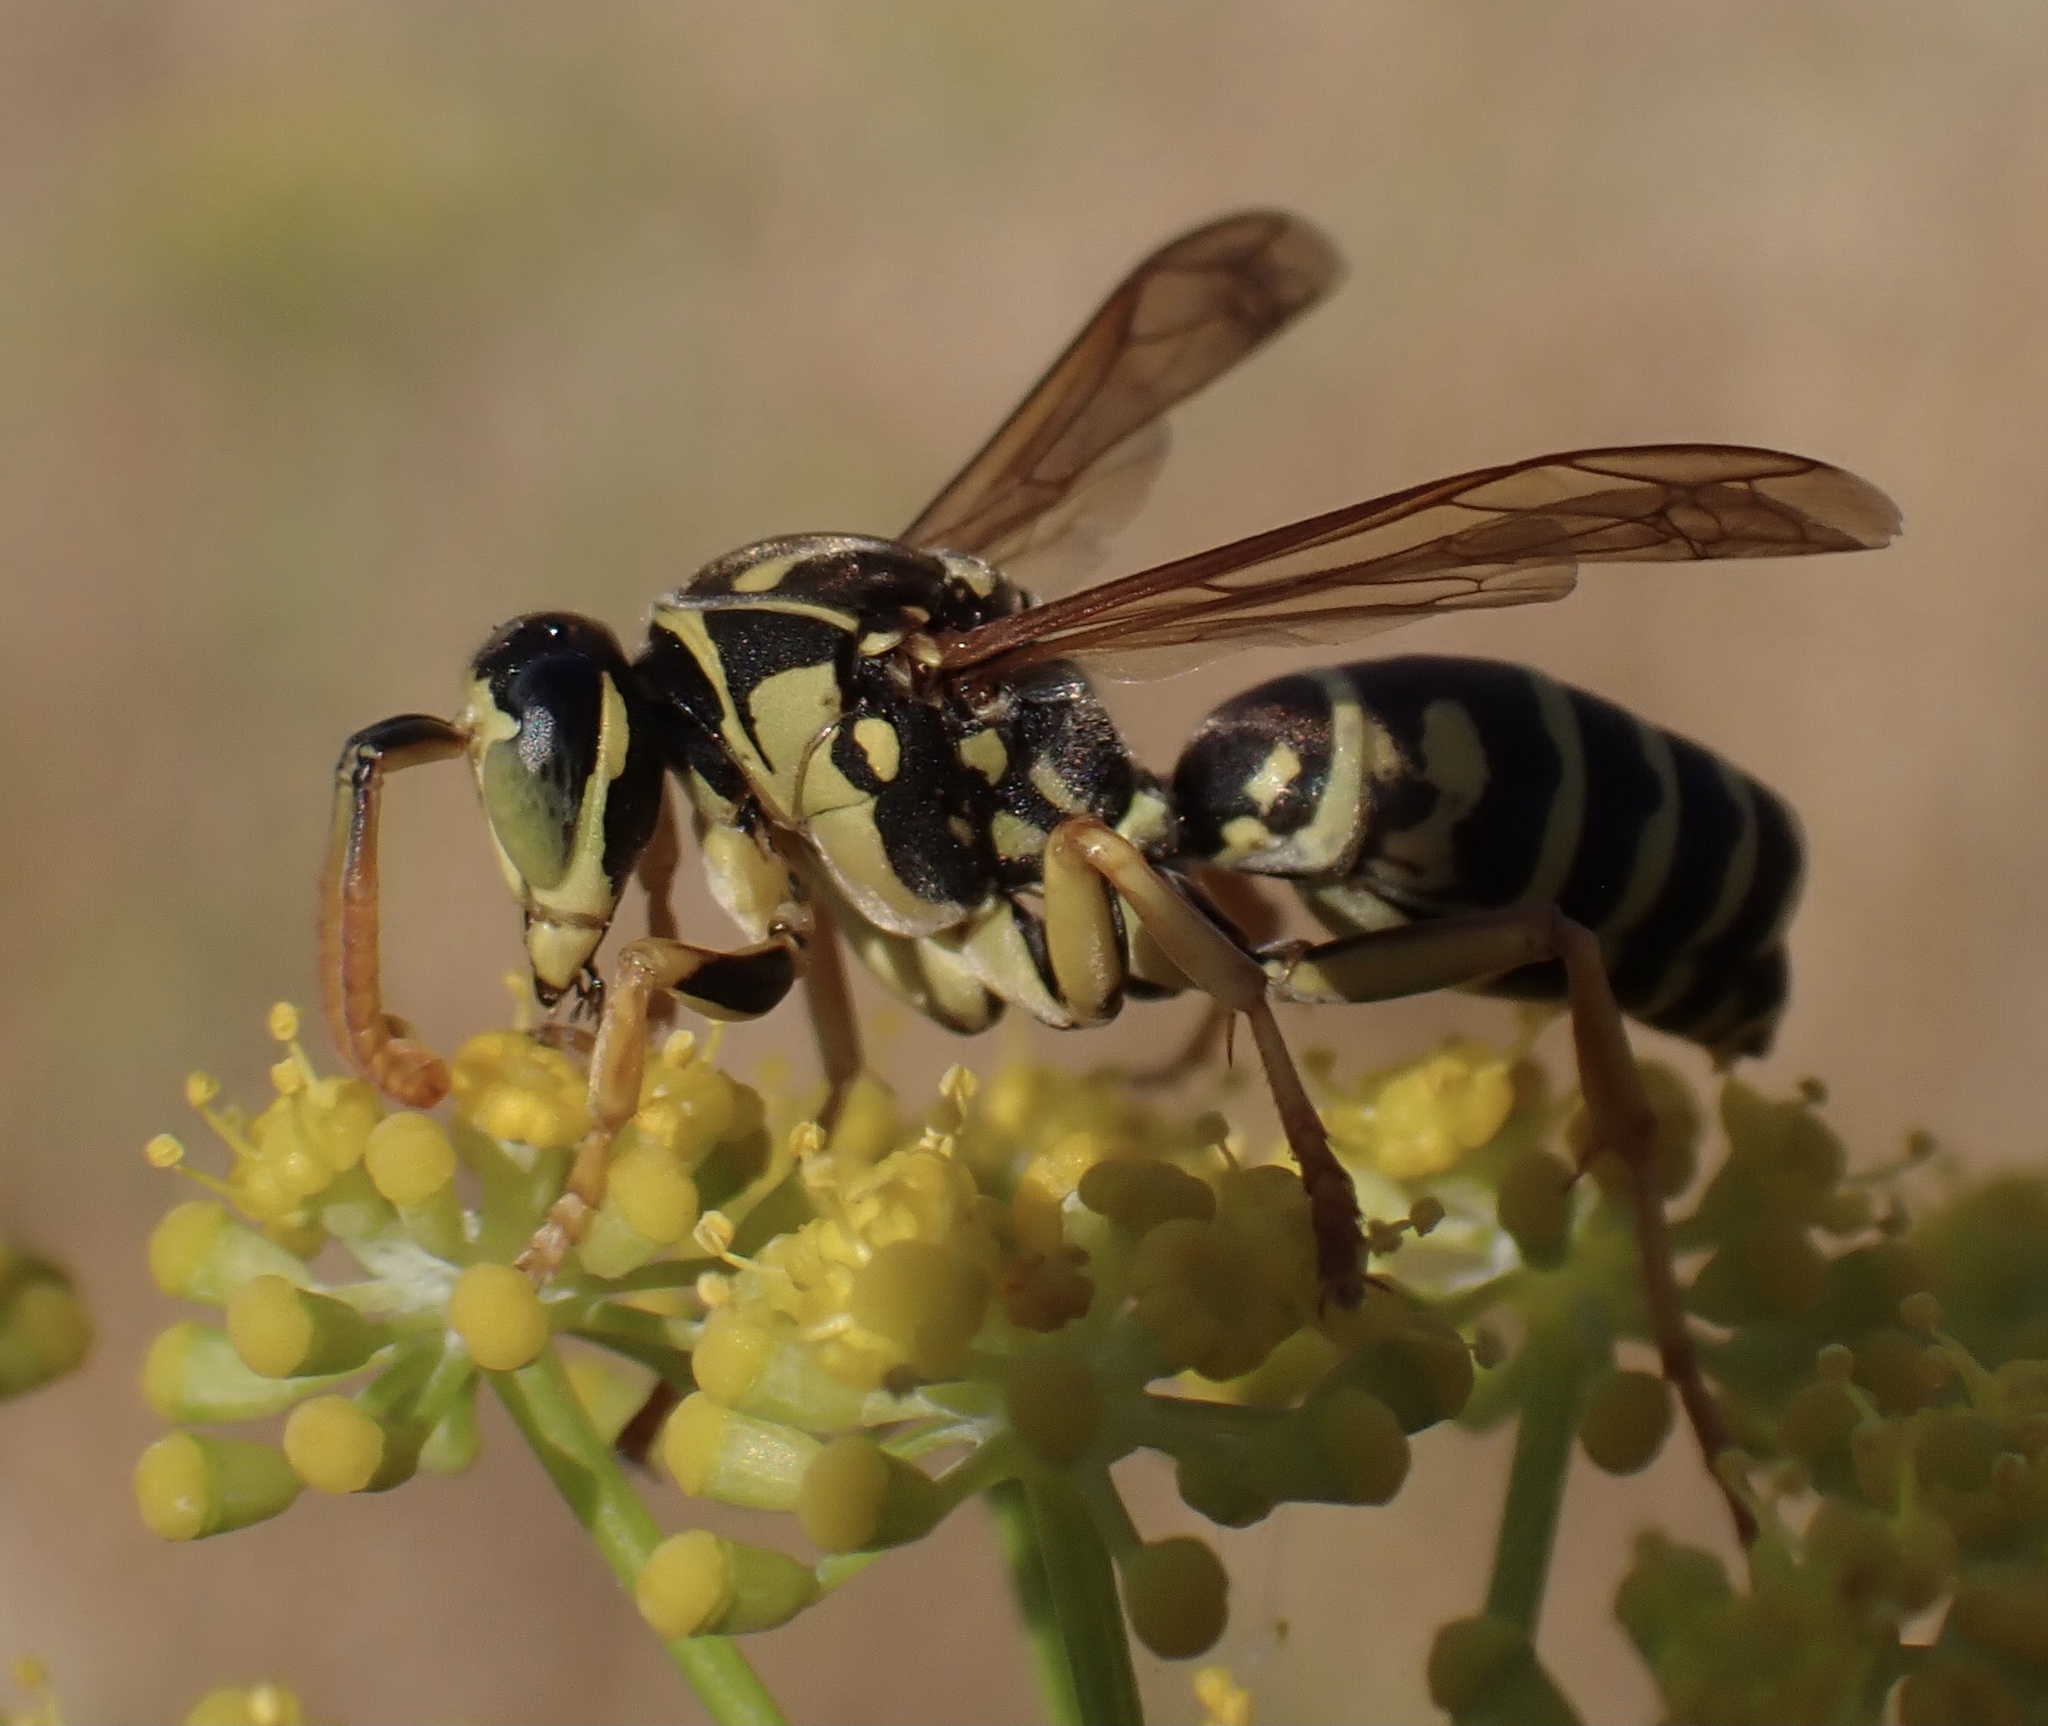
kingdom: Animalia
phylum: Arthropoda
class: Insecta
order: Hymenoptera
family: Eumenidae
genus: Polistes
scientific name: Polistes nimpha
